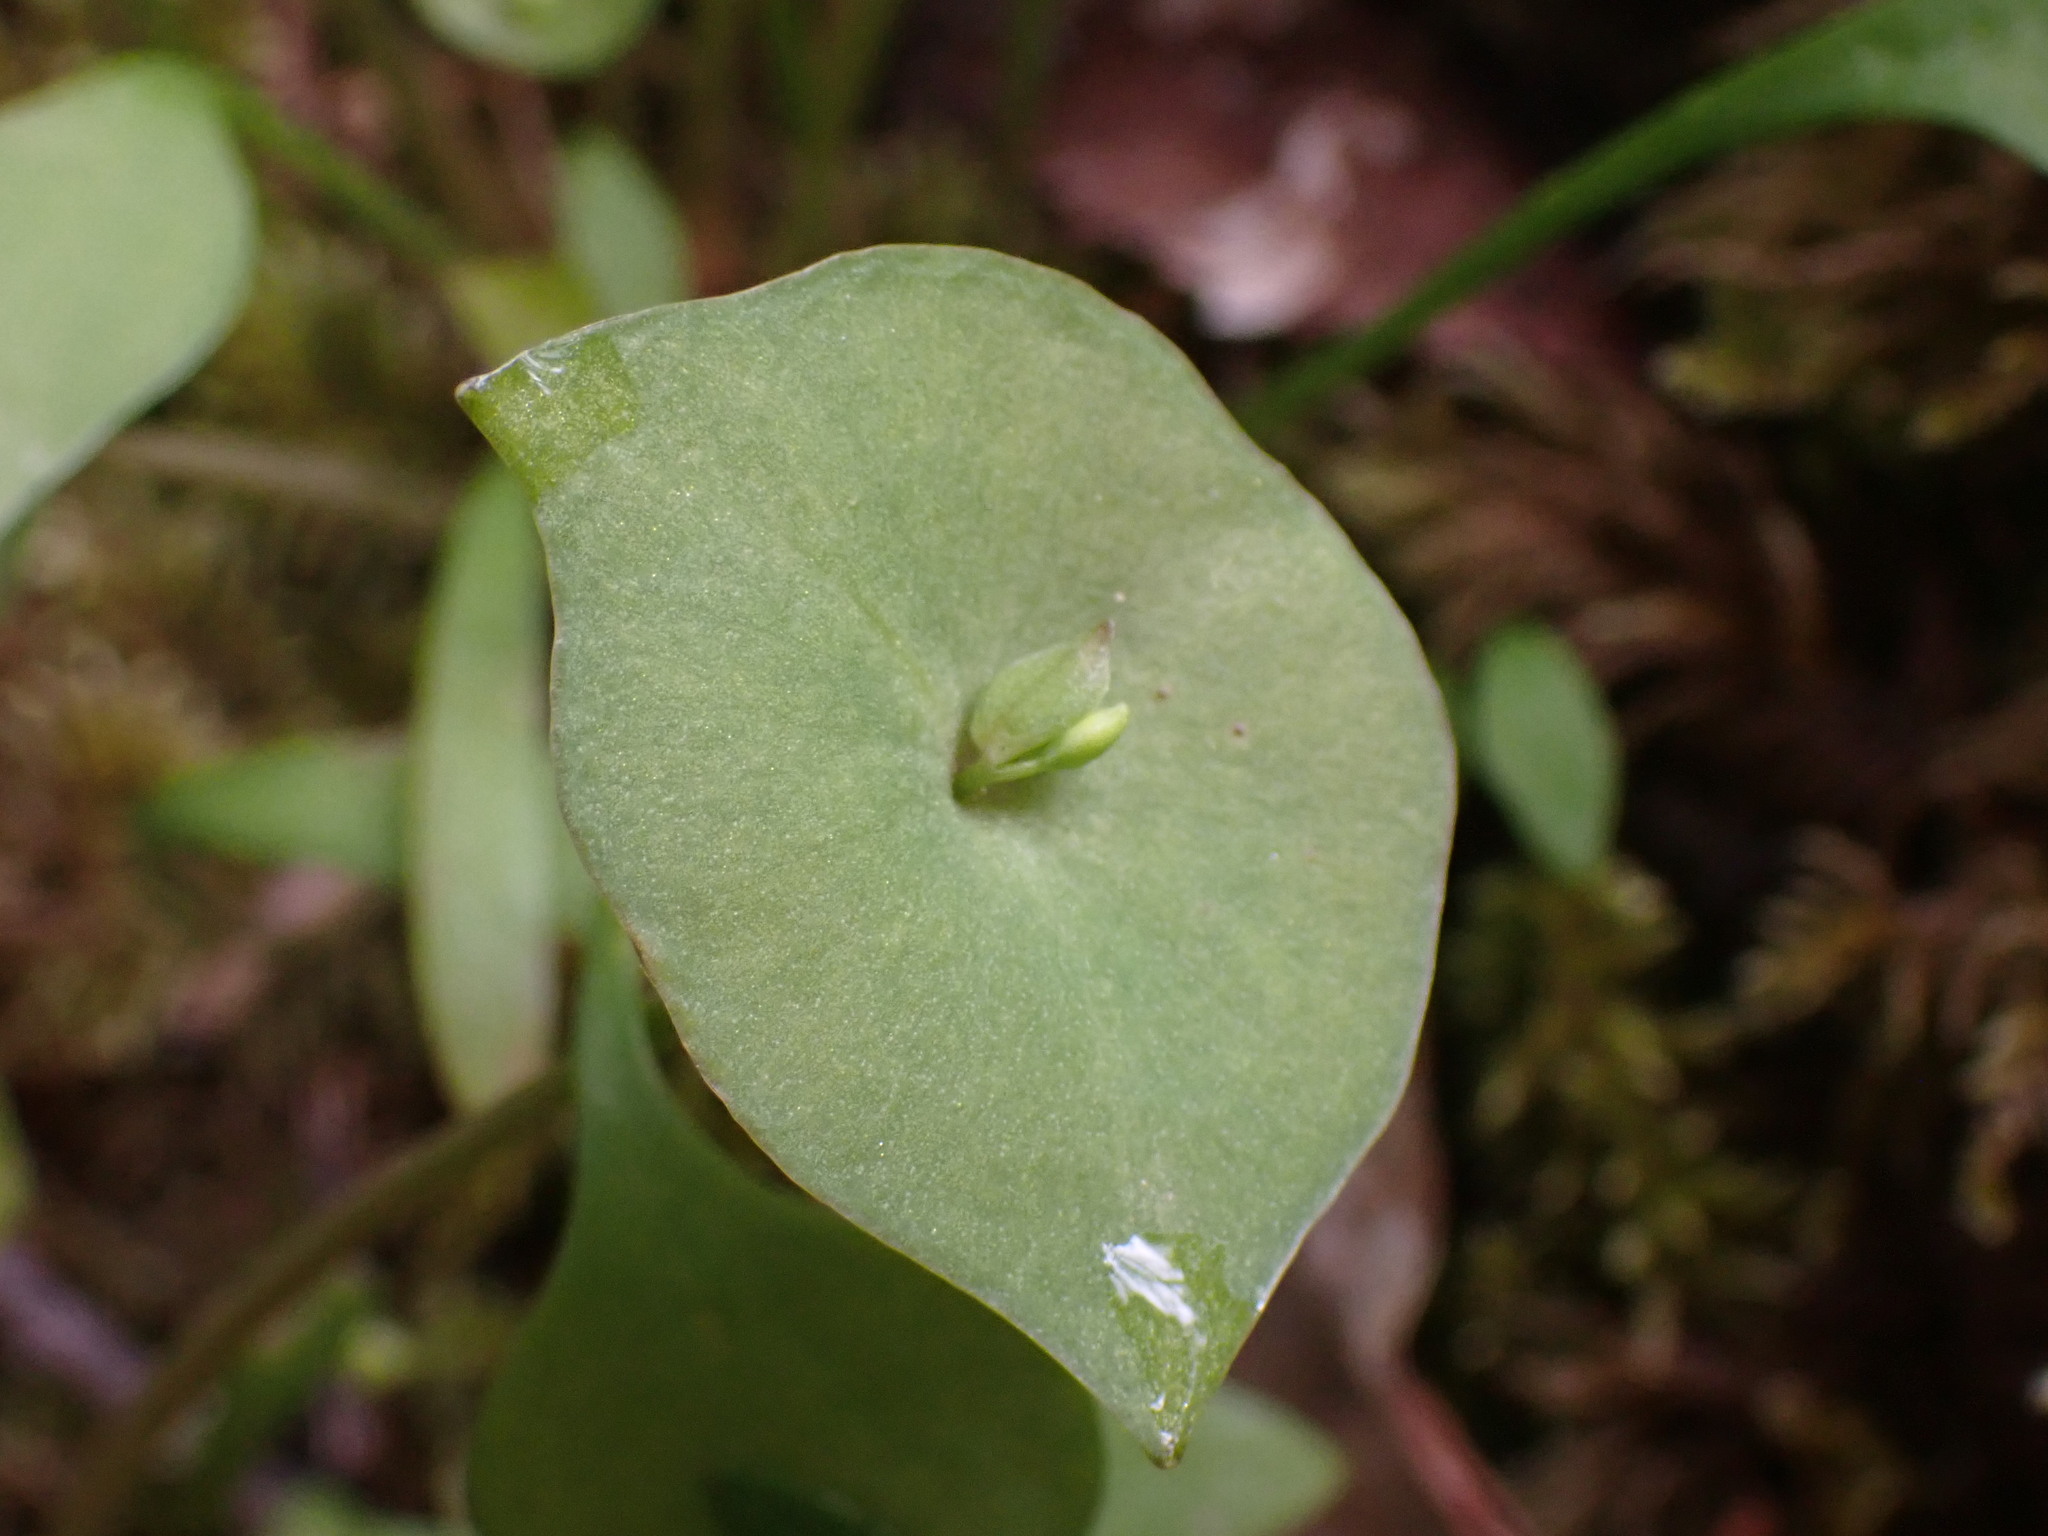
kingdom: Plantae
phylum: Tracheophyta
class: Magnoliopsida
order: Caryophyllales
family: Montiaceae
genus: Claytonia
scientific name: Claytonia perfoliata
